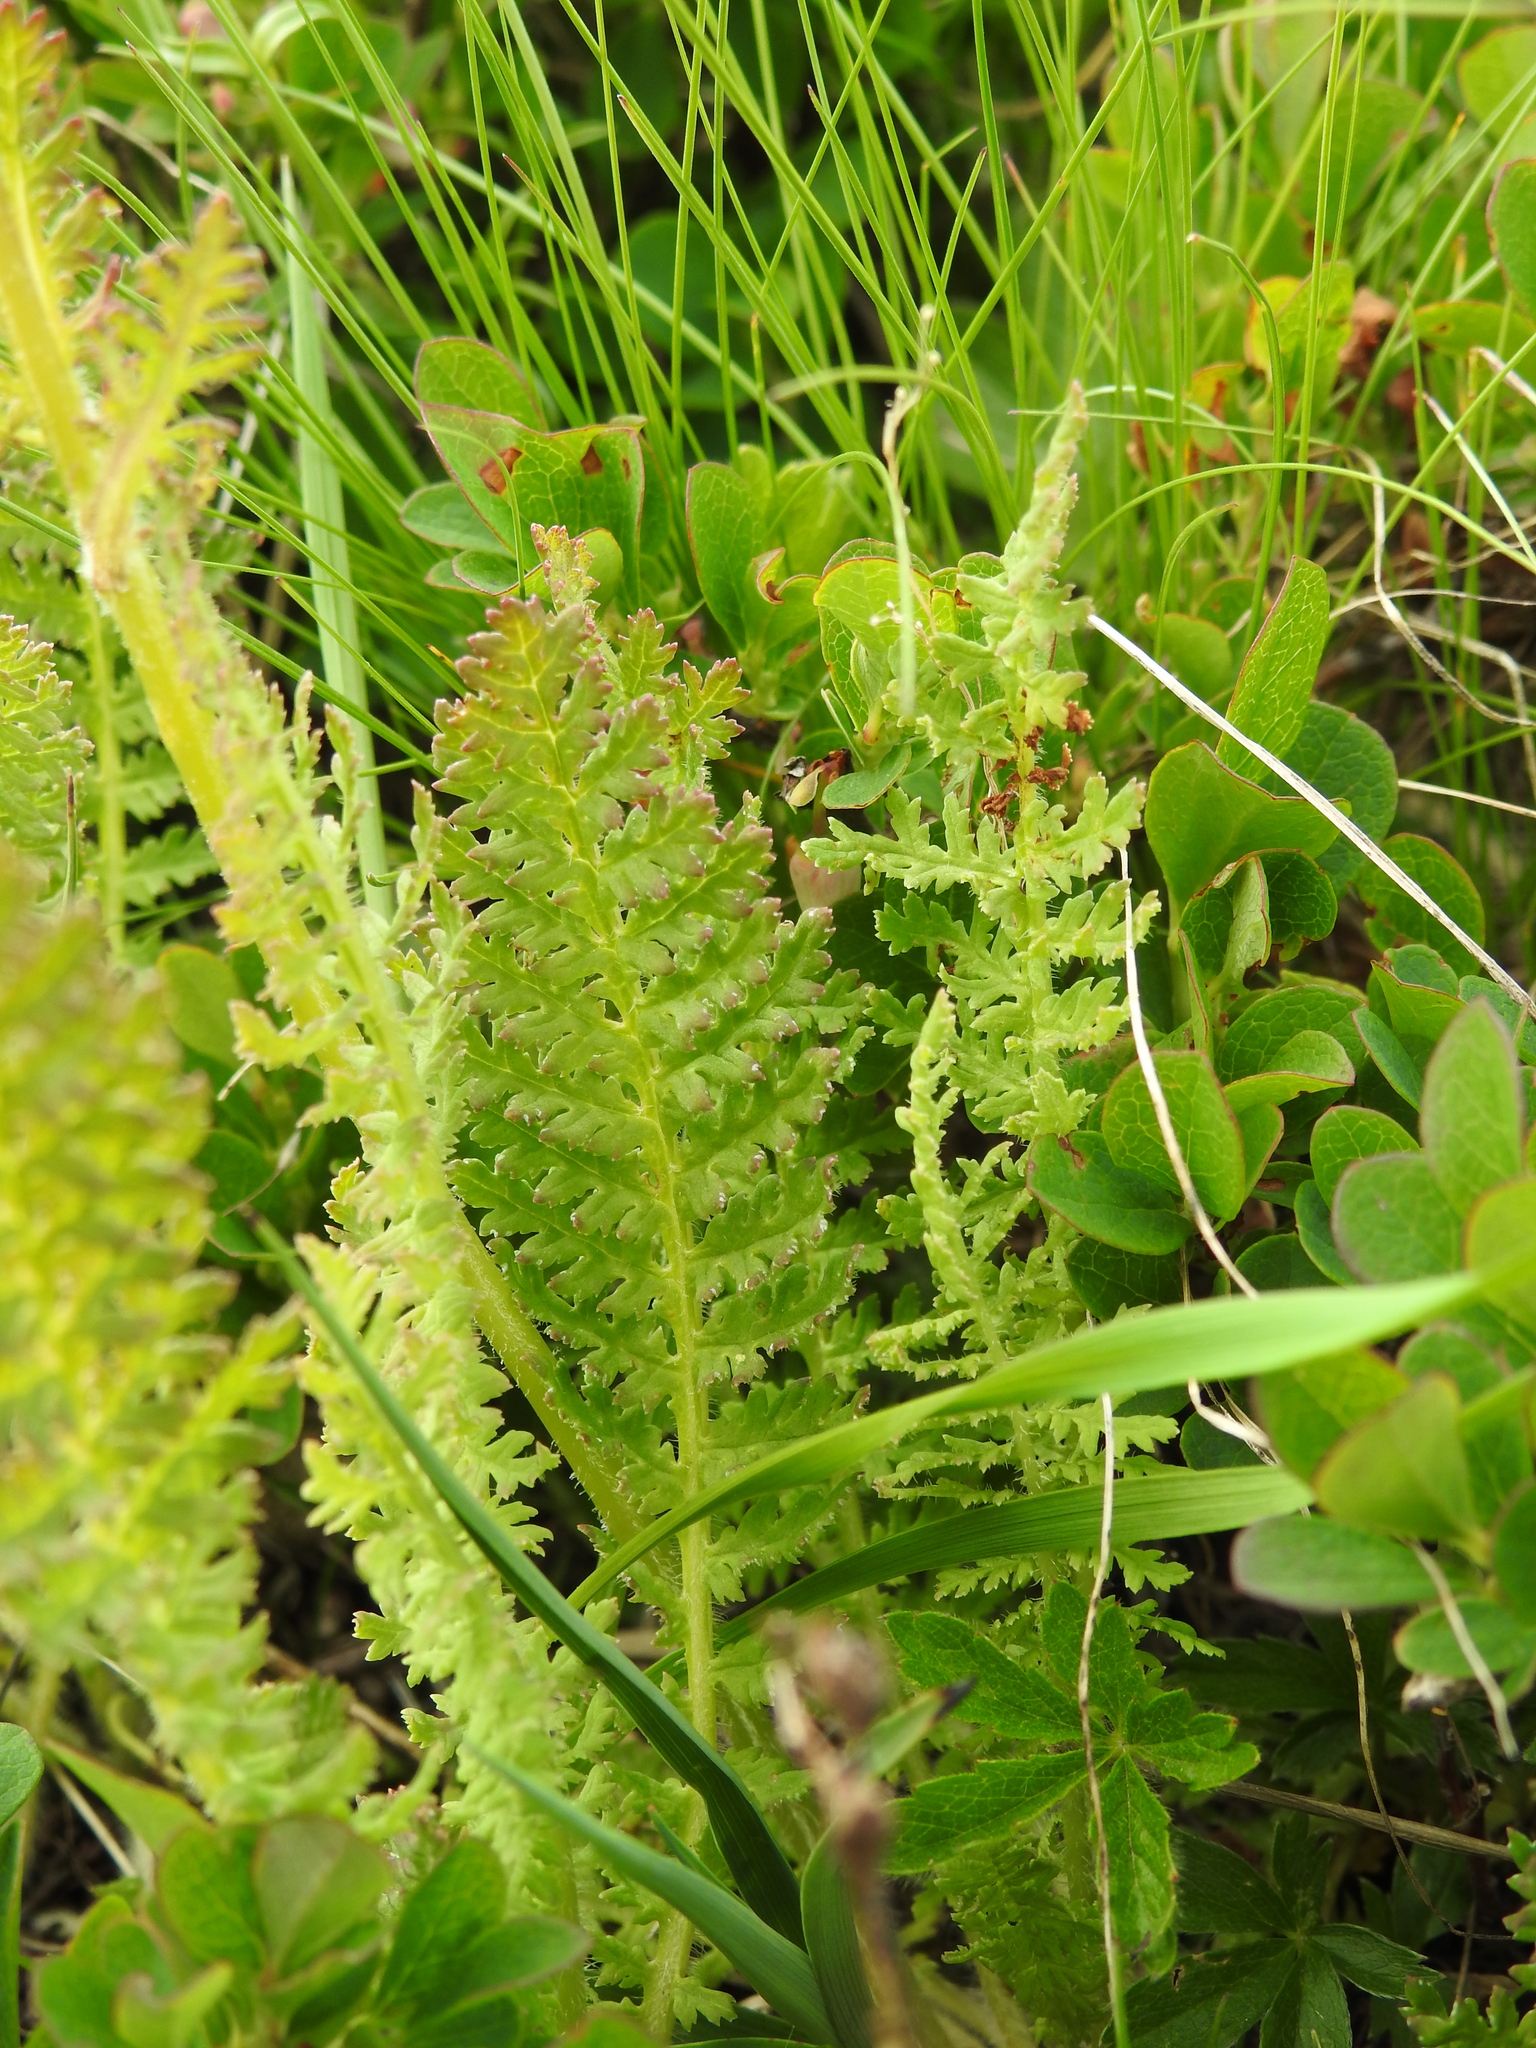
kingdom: Plantae
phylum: Tracheophyta
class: Magnoliopsida
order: Lamiales
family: Orobanchaceae
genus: Pedicularis
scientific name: Pedicularis tuberosa
